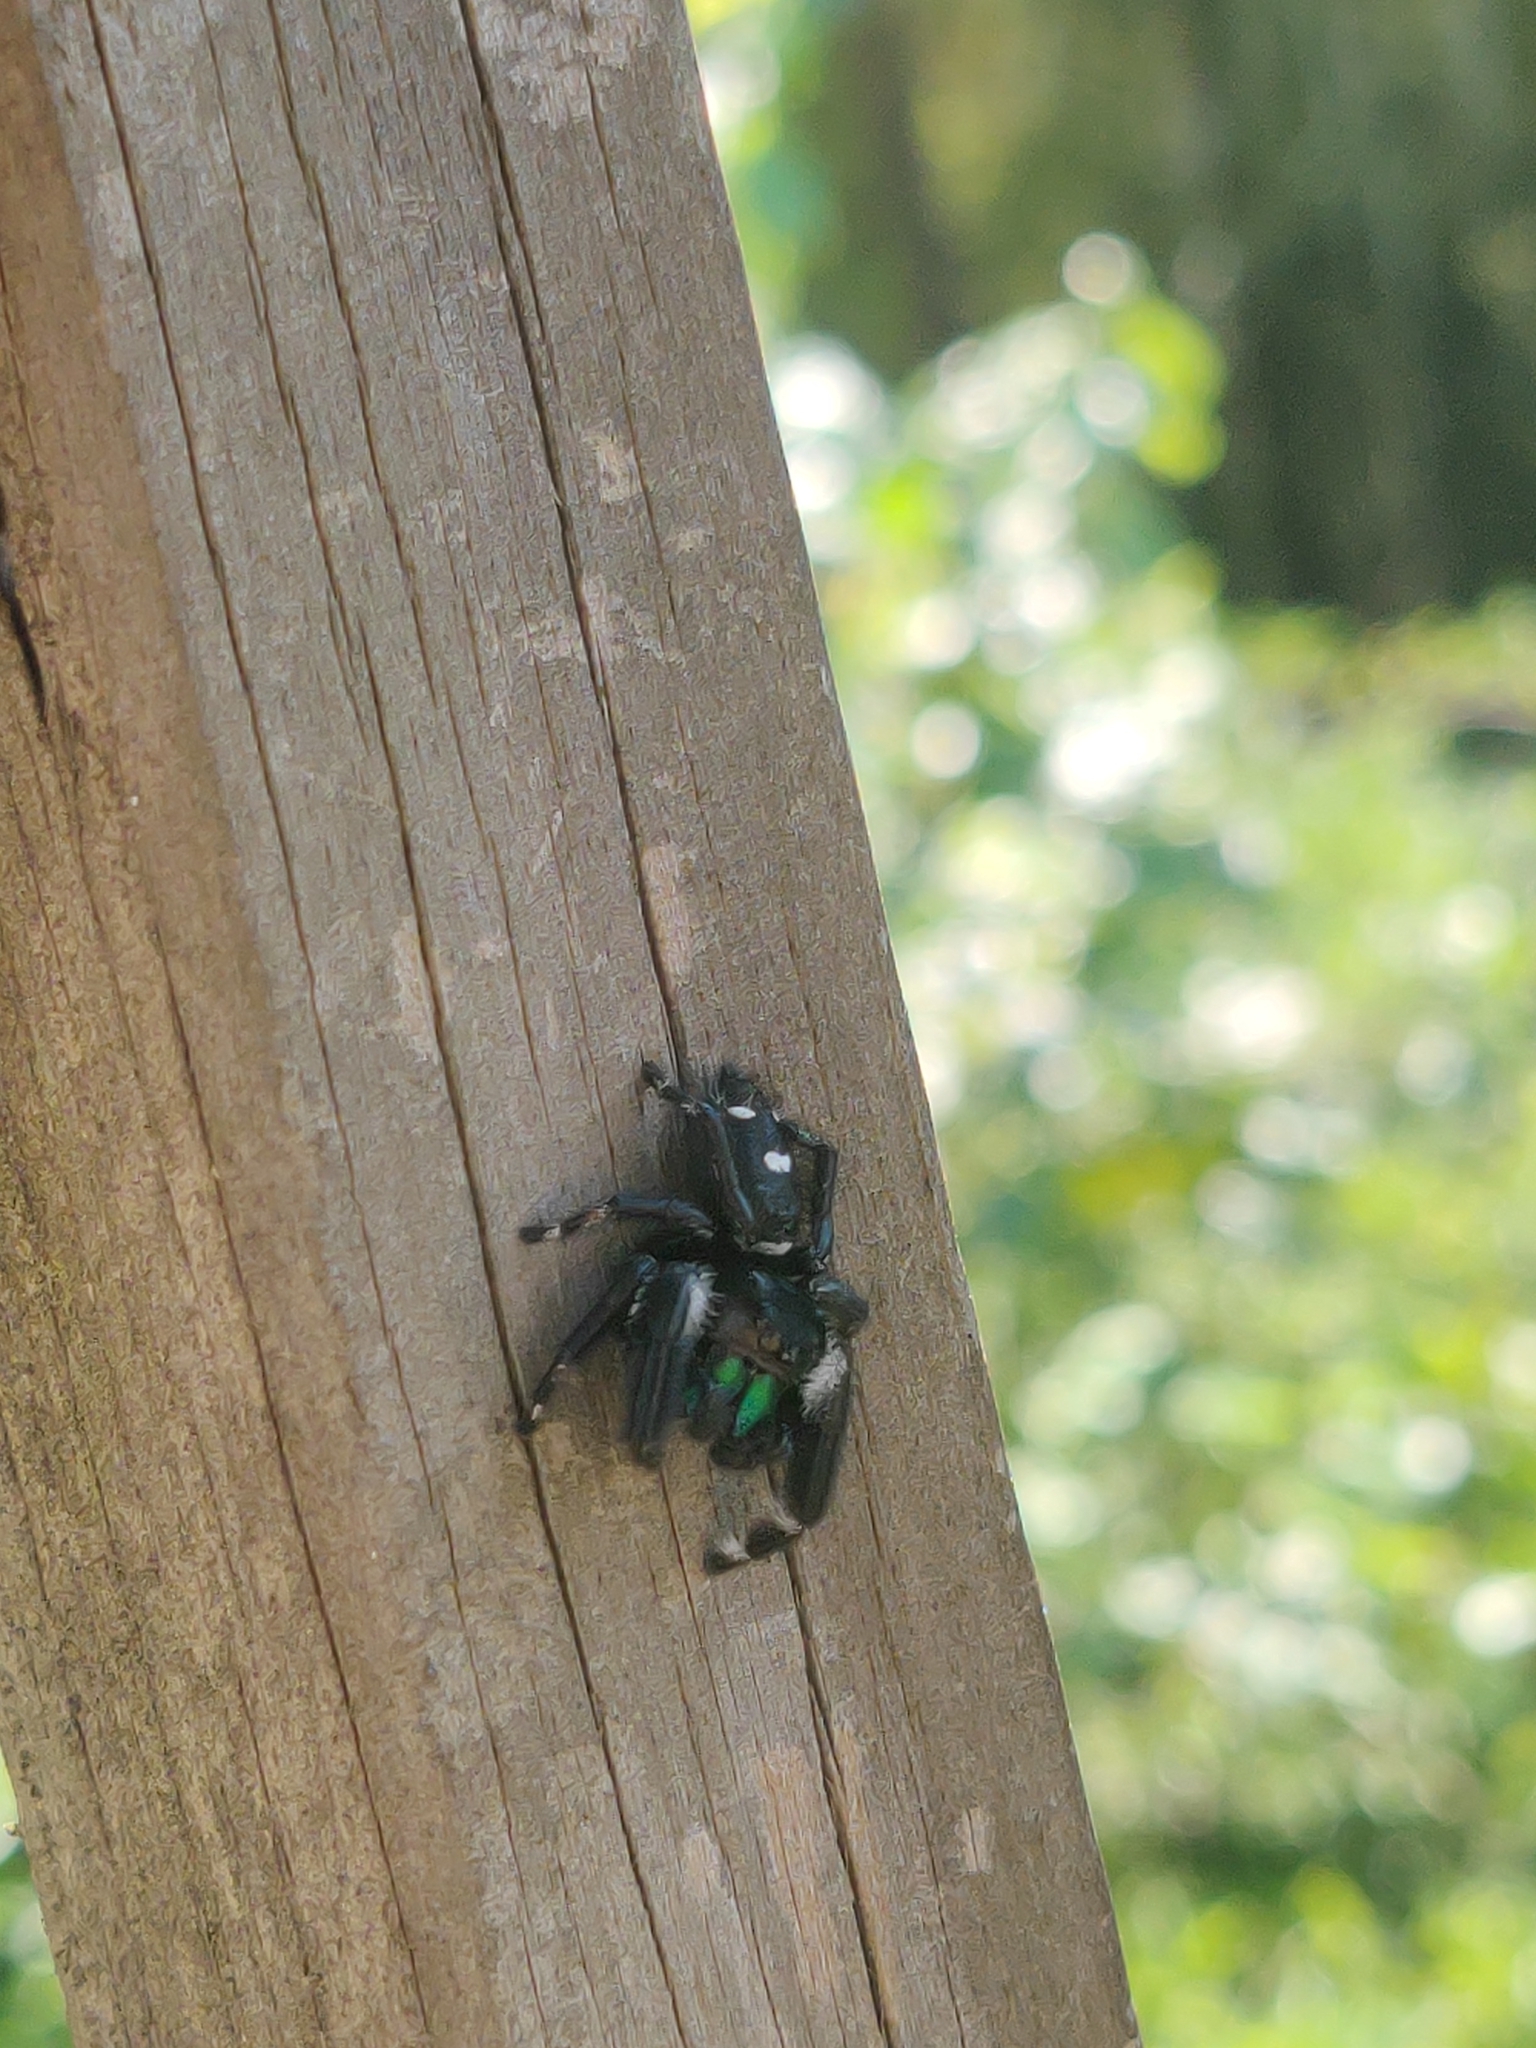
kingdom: Animalia
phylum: Arthropoda
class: Arachnida
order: Araneae
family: Salticidae
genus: Phidippus
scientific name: Phidippus regius
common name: Regal jumper
